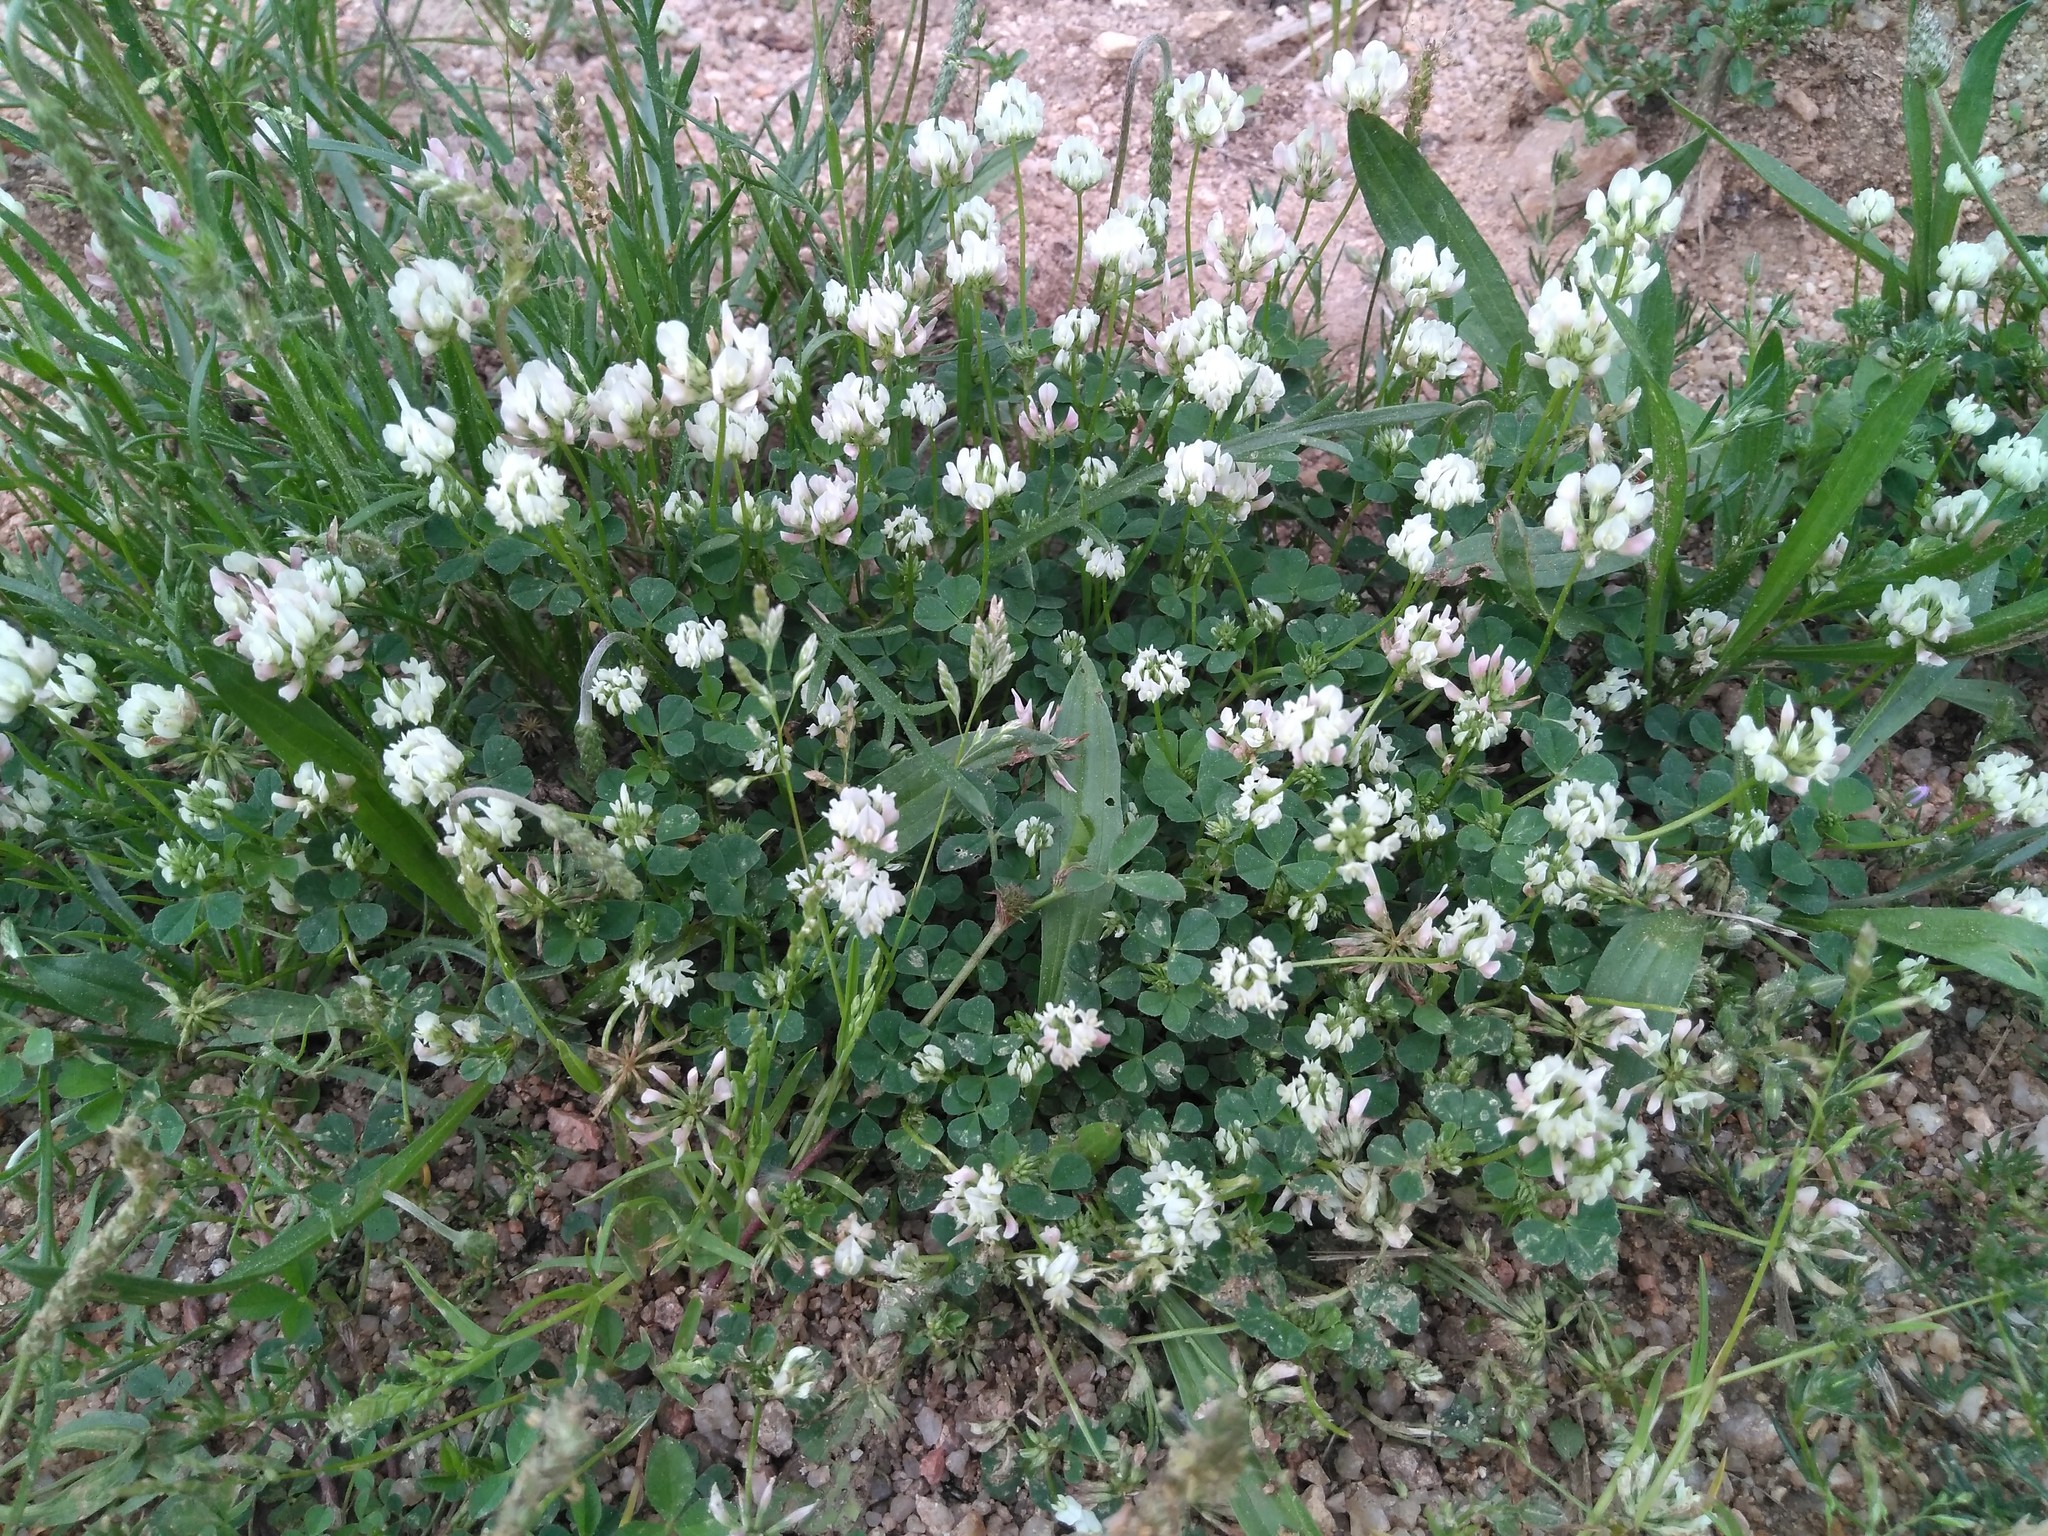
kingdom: Plantae
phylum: Tracheophyta
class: Magnoliopsida
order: Fabales
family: Fabaceae
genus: Trifolium
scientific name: Trifolium nigrescens
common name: Small white clover
